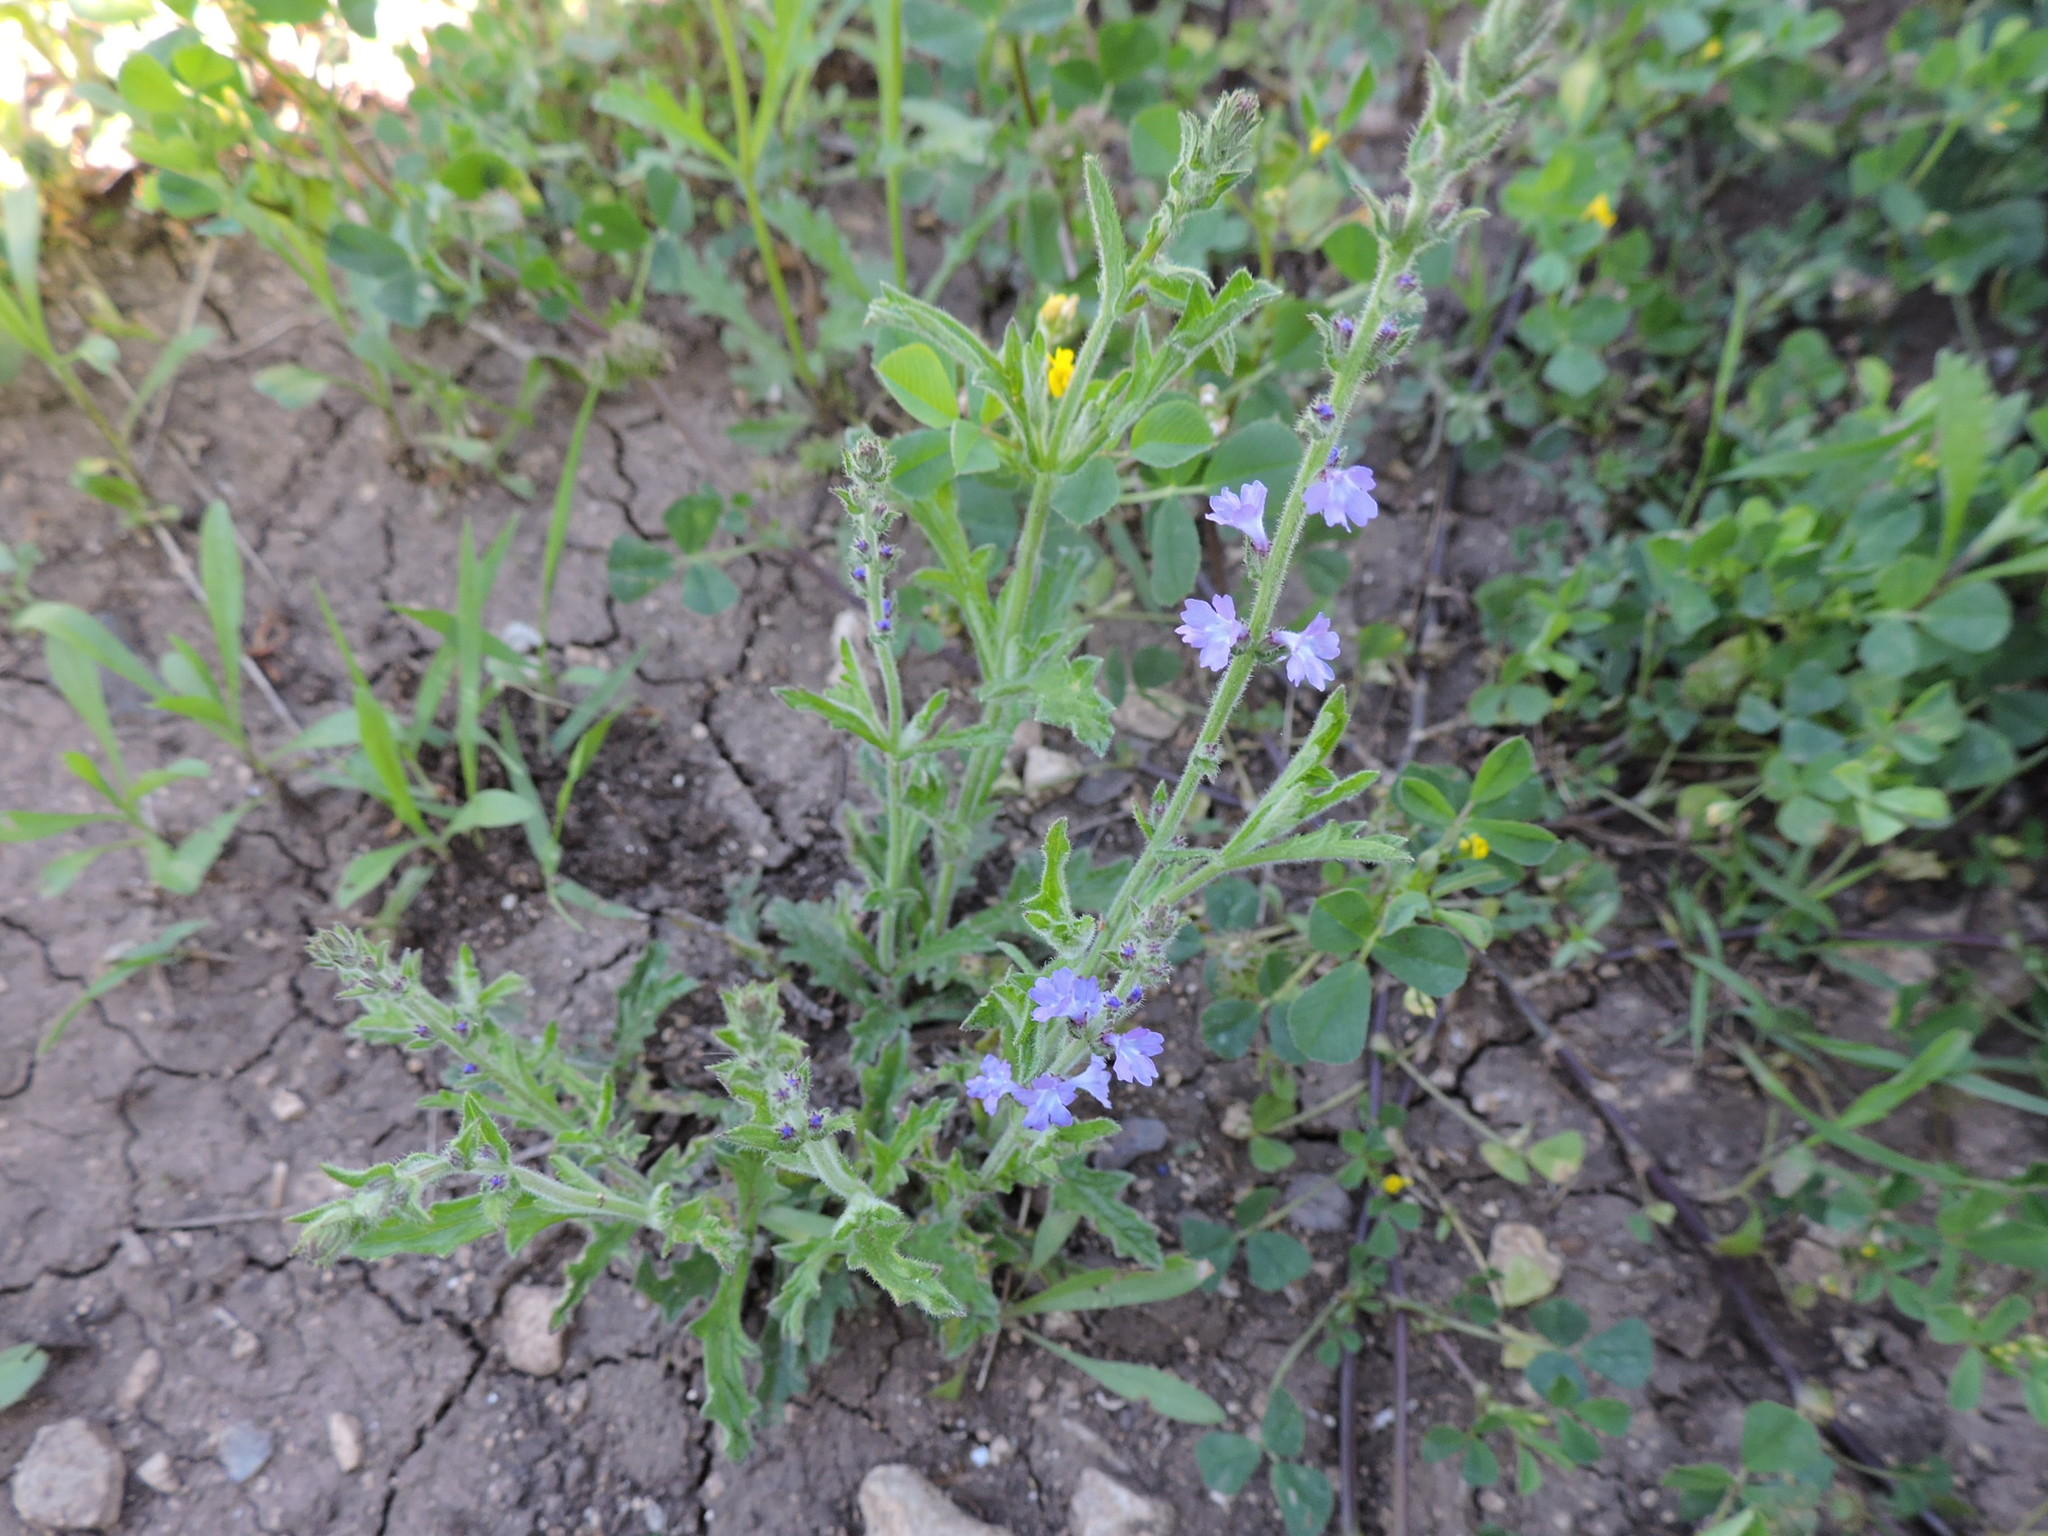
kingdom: Plantae
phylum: Tracheophyta
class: Magnoliopsida
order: Lamiales
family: Verbenaceae
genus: Verbena
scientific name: Verbena canescens
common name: Gray vervain
